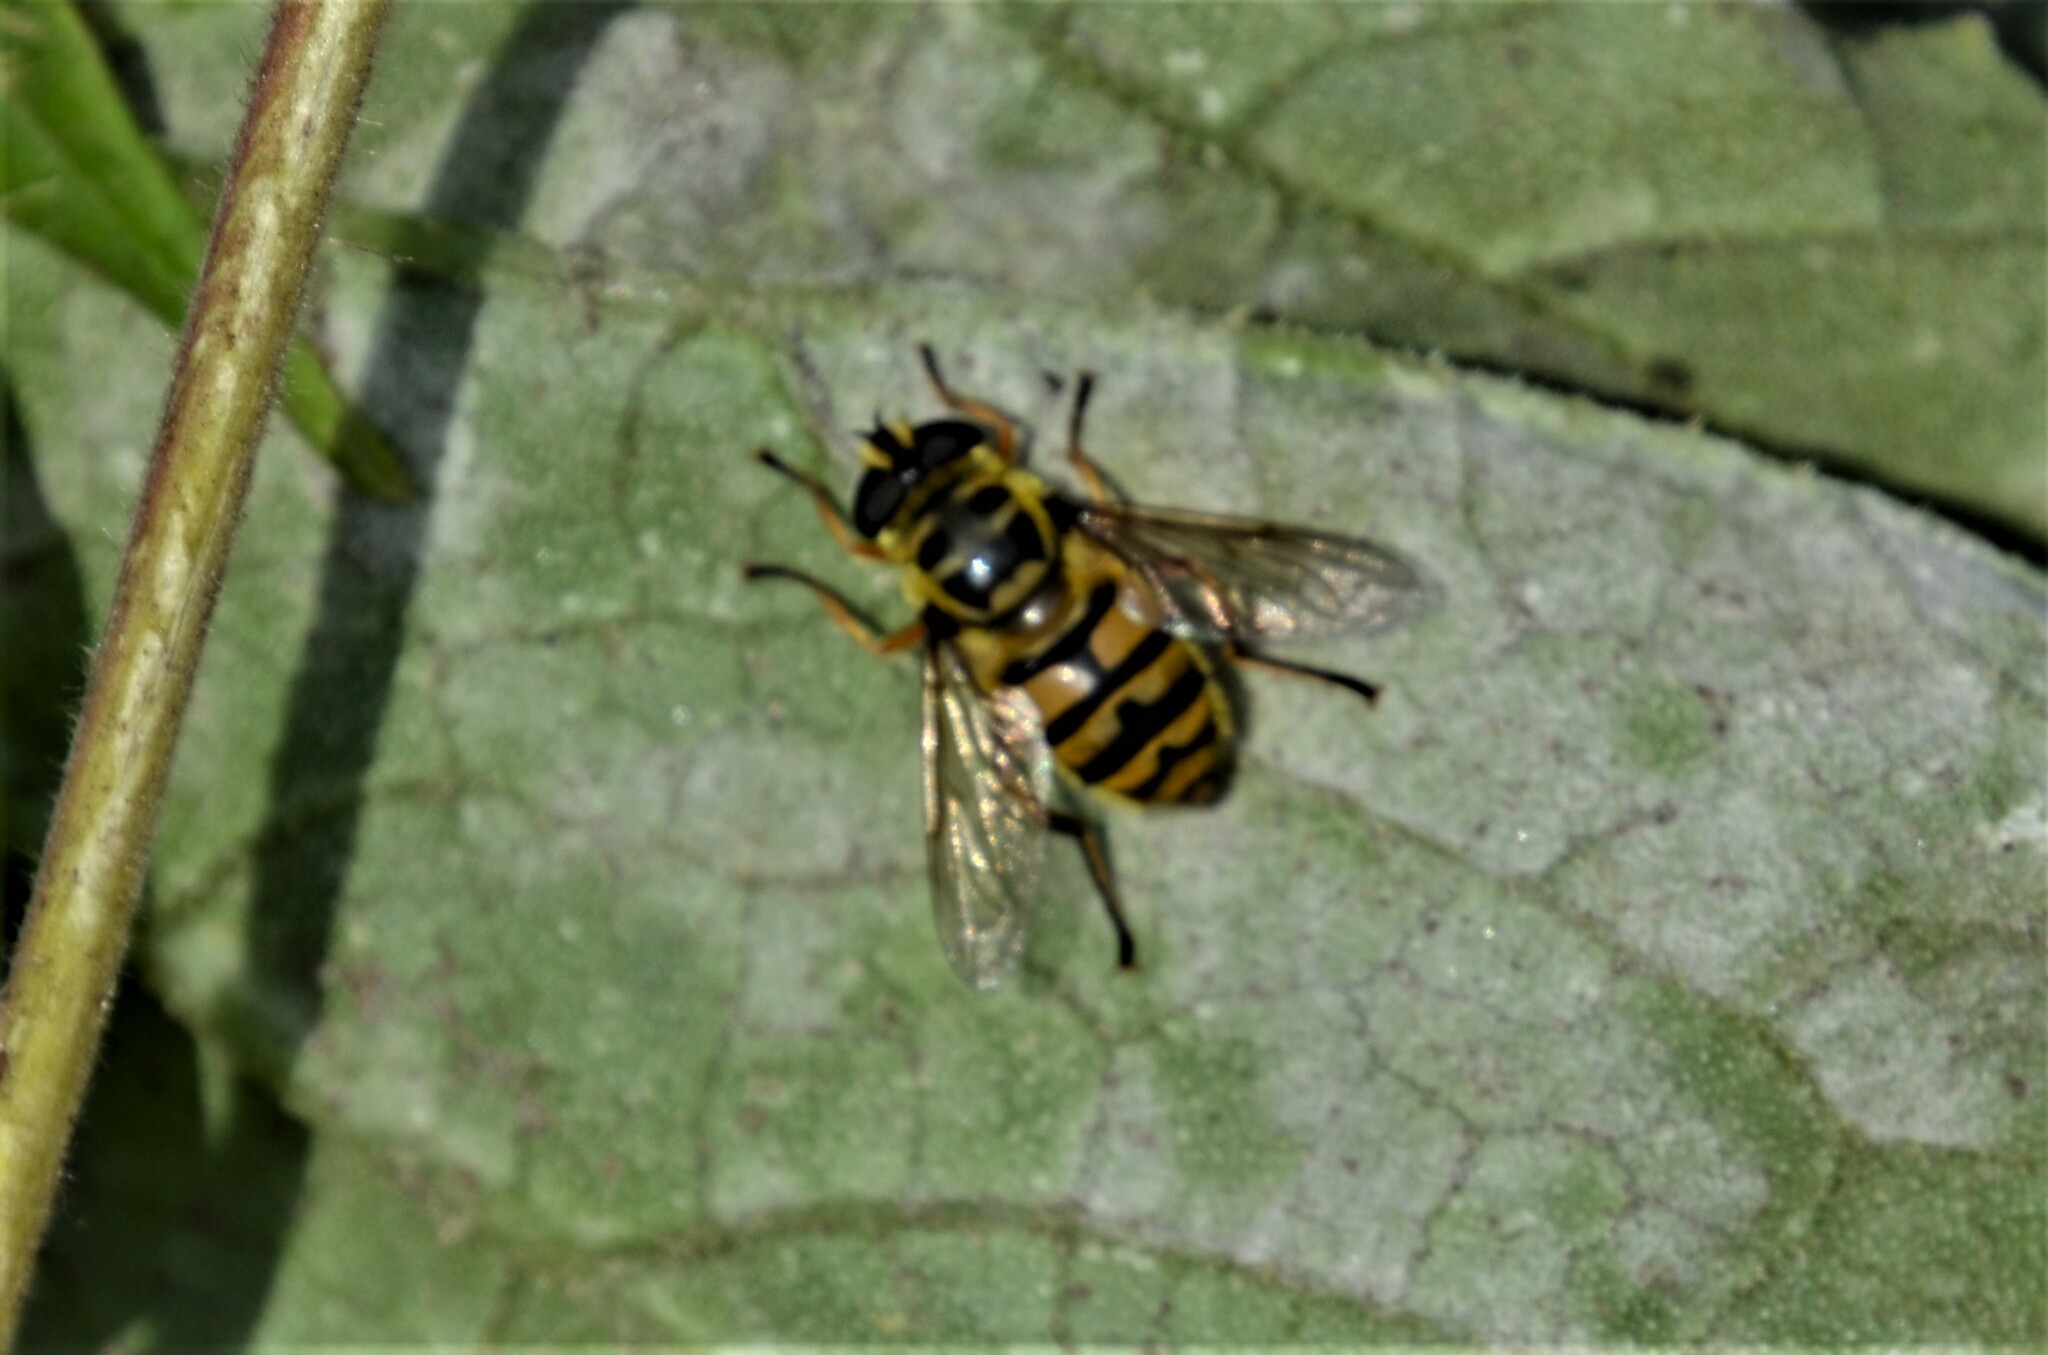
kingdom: Animalia
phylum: Arthropoda
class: Insecta
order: Diptera
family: Syrphidae
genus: Myathropa
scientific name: Myathropa florea
